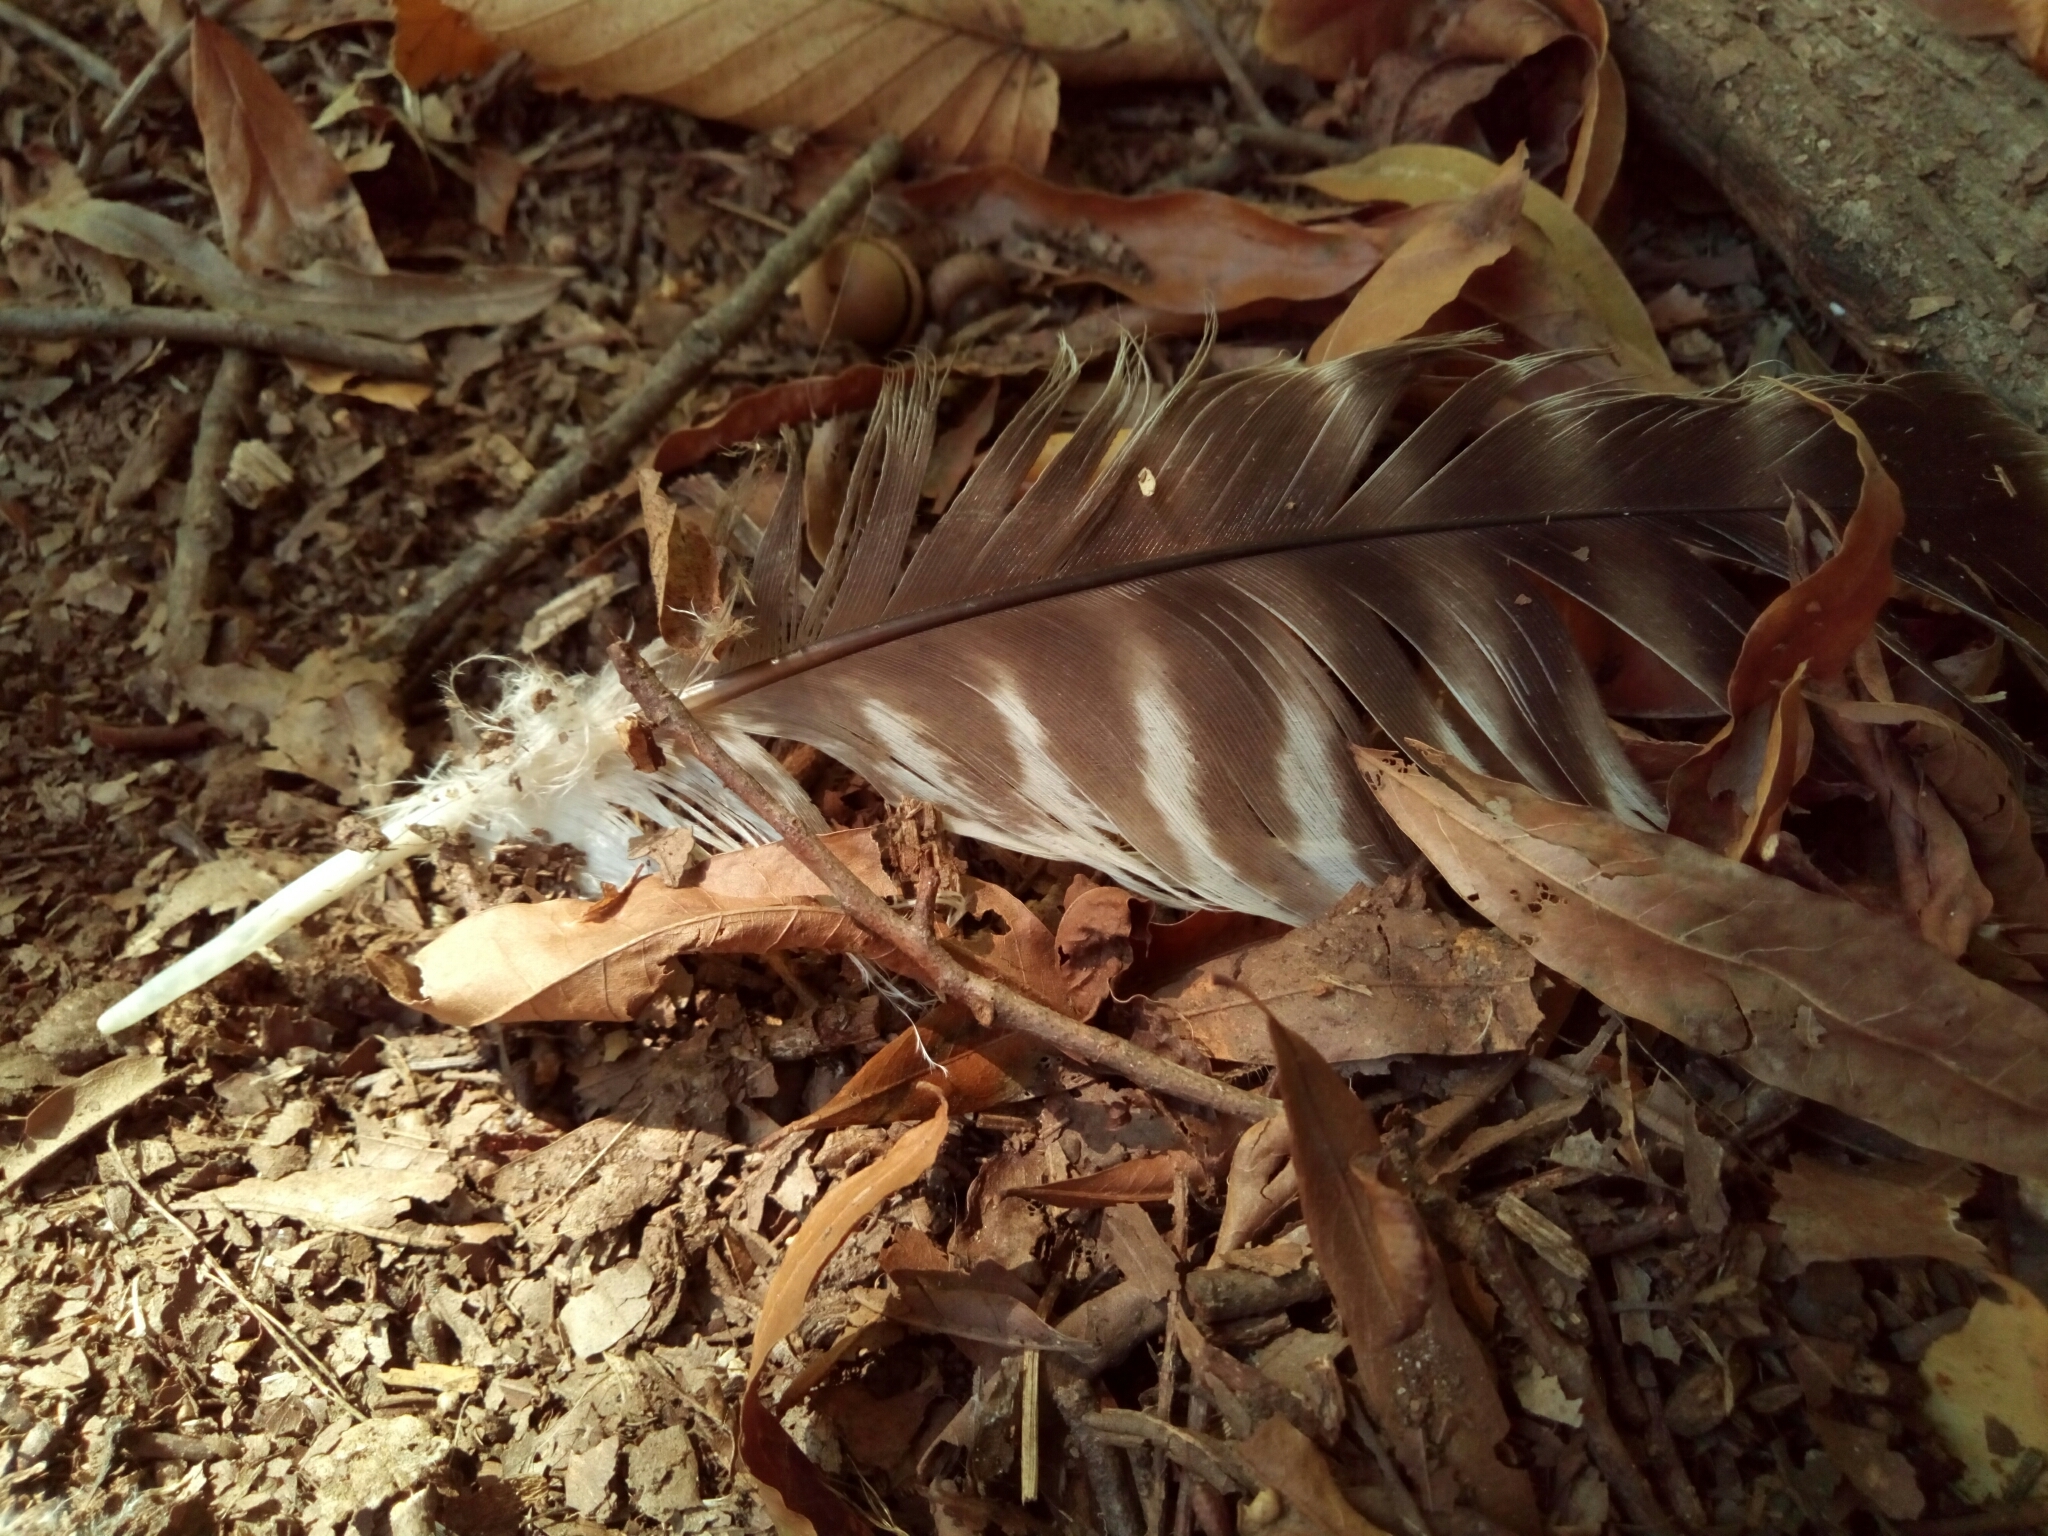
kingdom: Animalia
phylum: Chordata
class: Aves
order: Accipitriformes
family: Accipitridae
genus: Buteo
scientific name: Buteo lineatus
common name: Red-shouldered hawk
